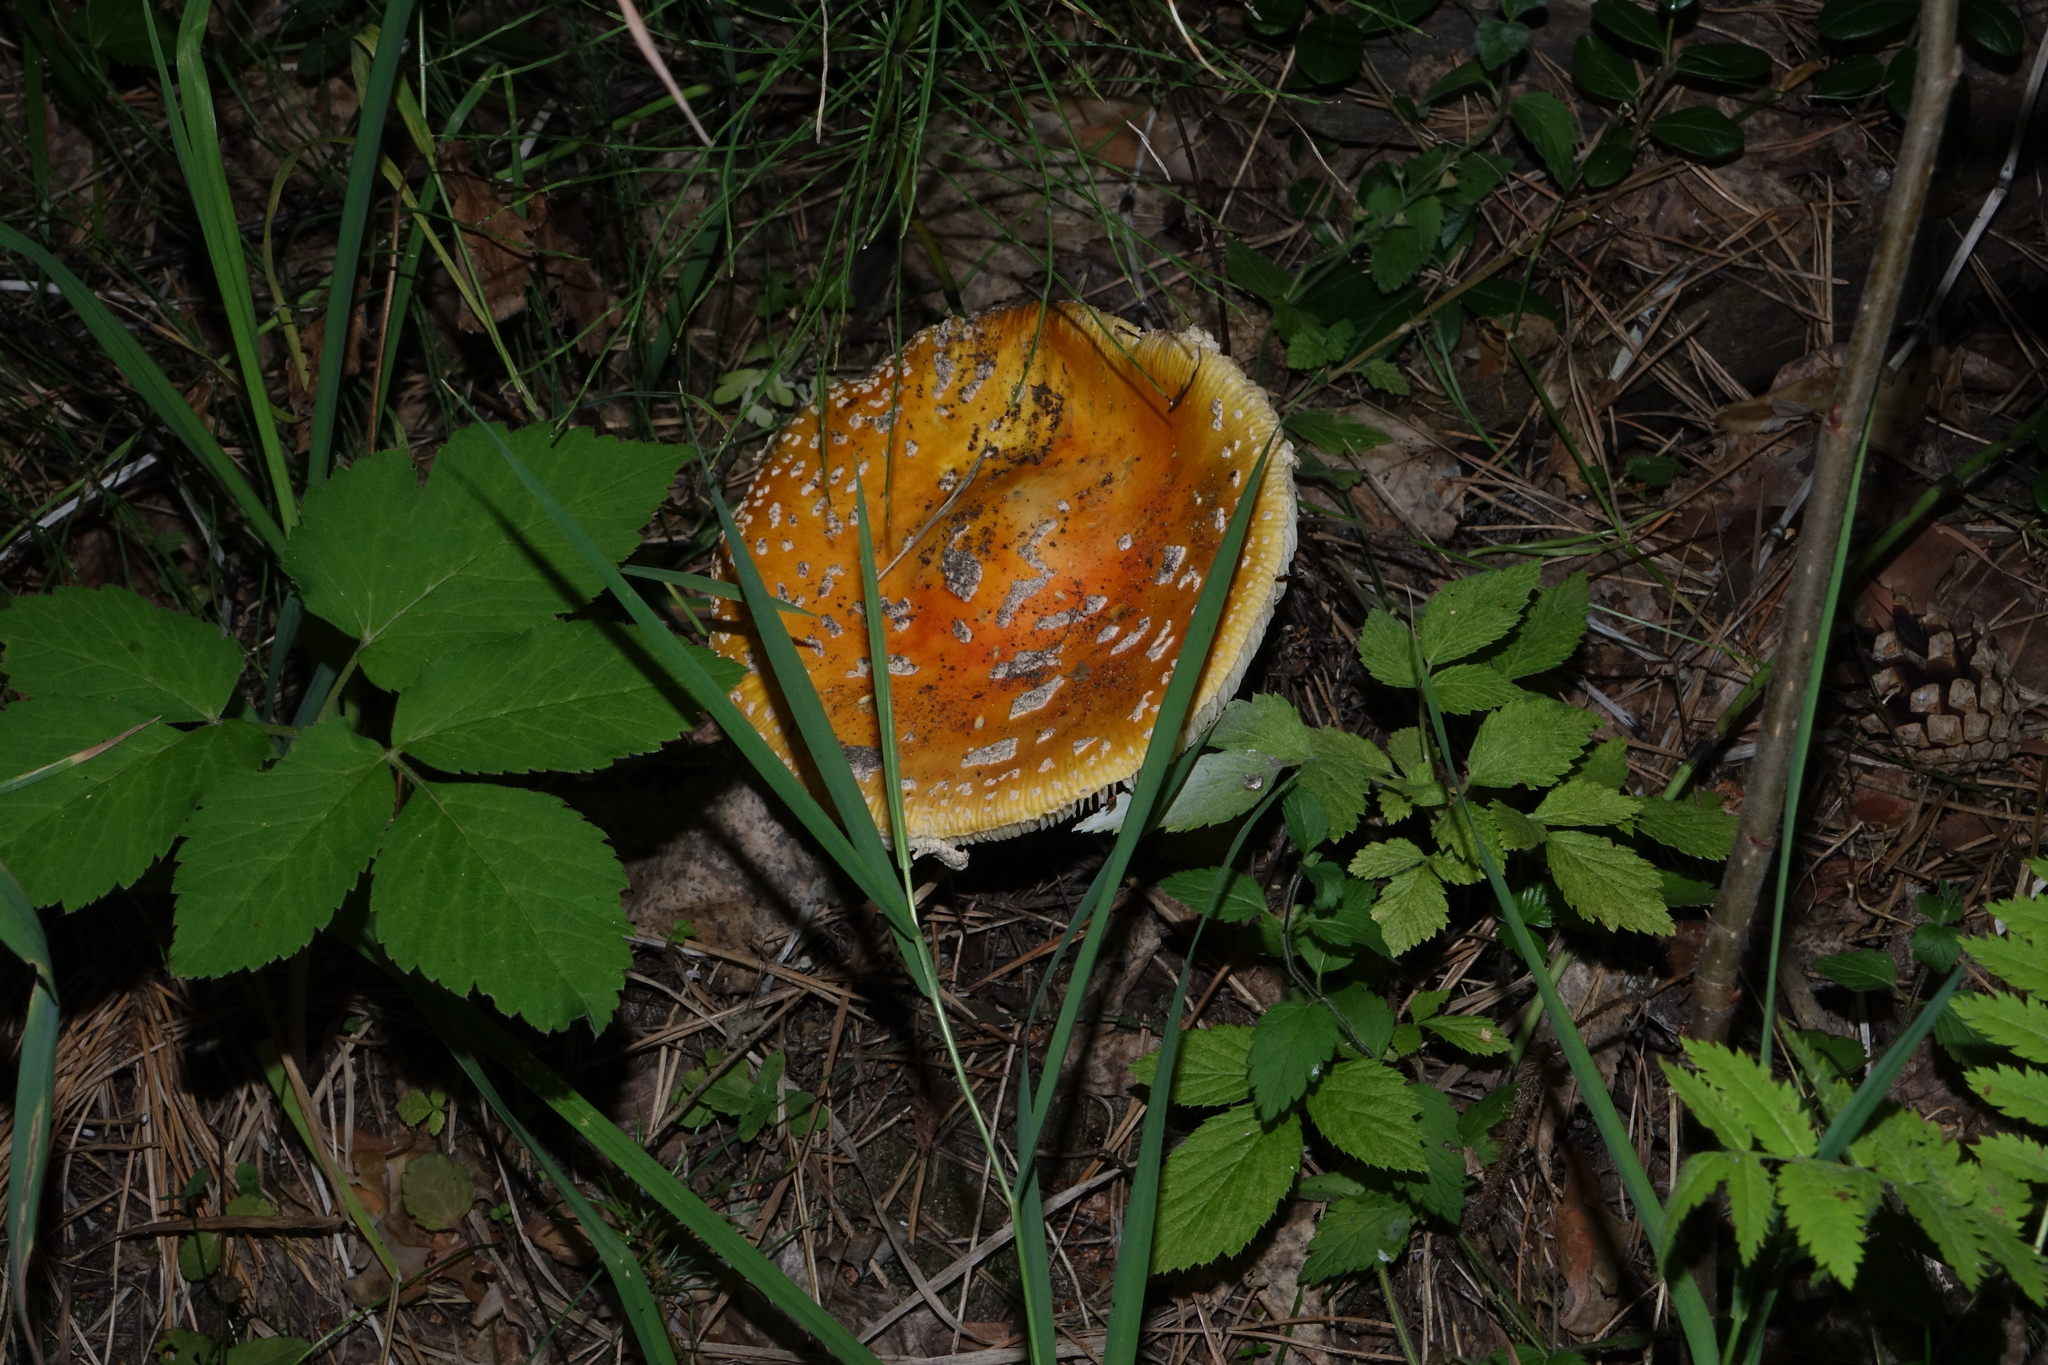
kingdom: Fungi
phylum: Basidiomycota
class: Agaricomycetes
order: Agaricales
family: Amanitaceae
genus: Amanita
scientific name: Amanita muscaria
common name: Fly agaric
